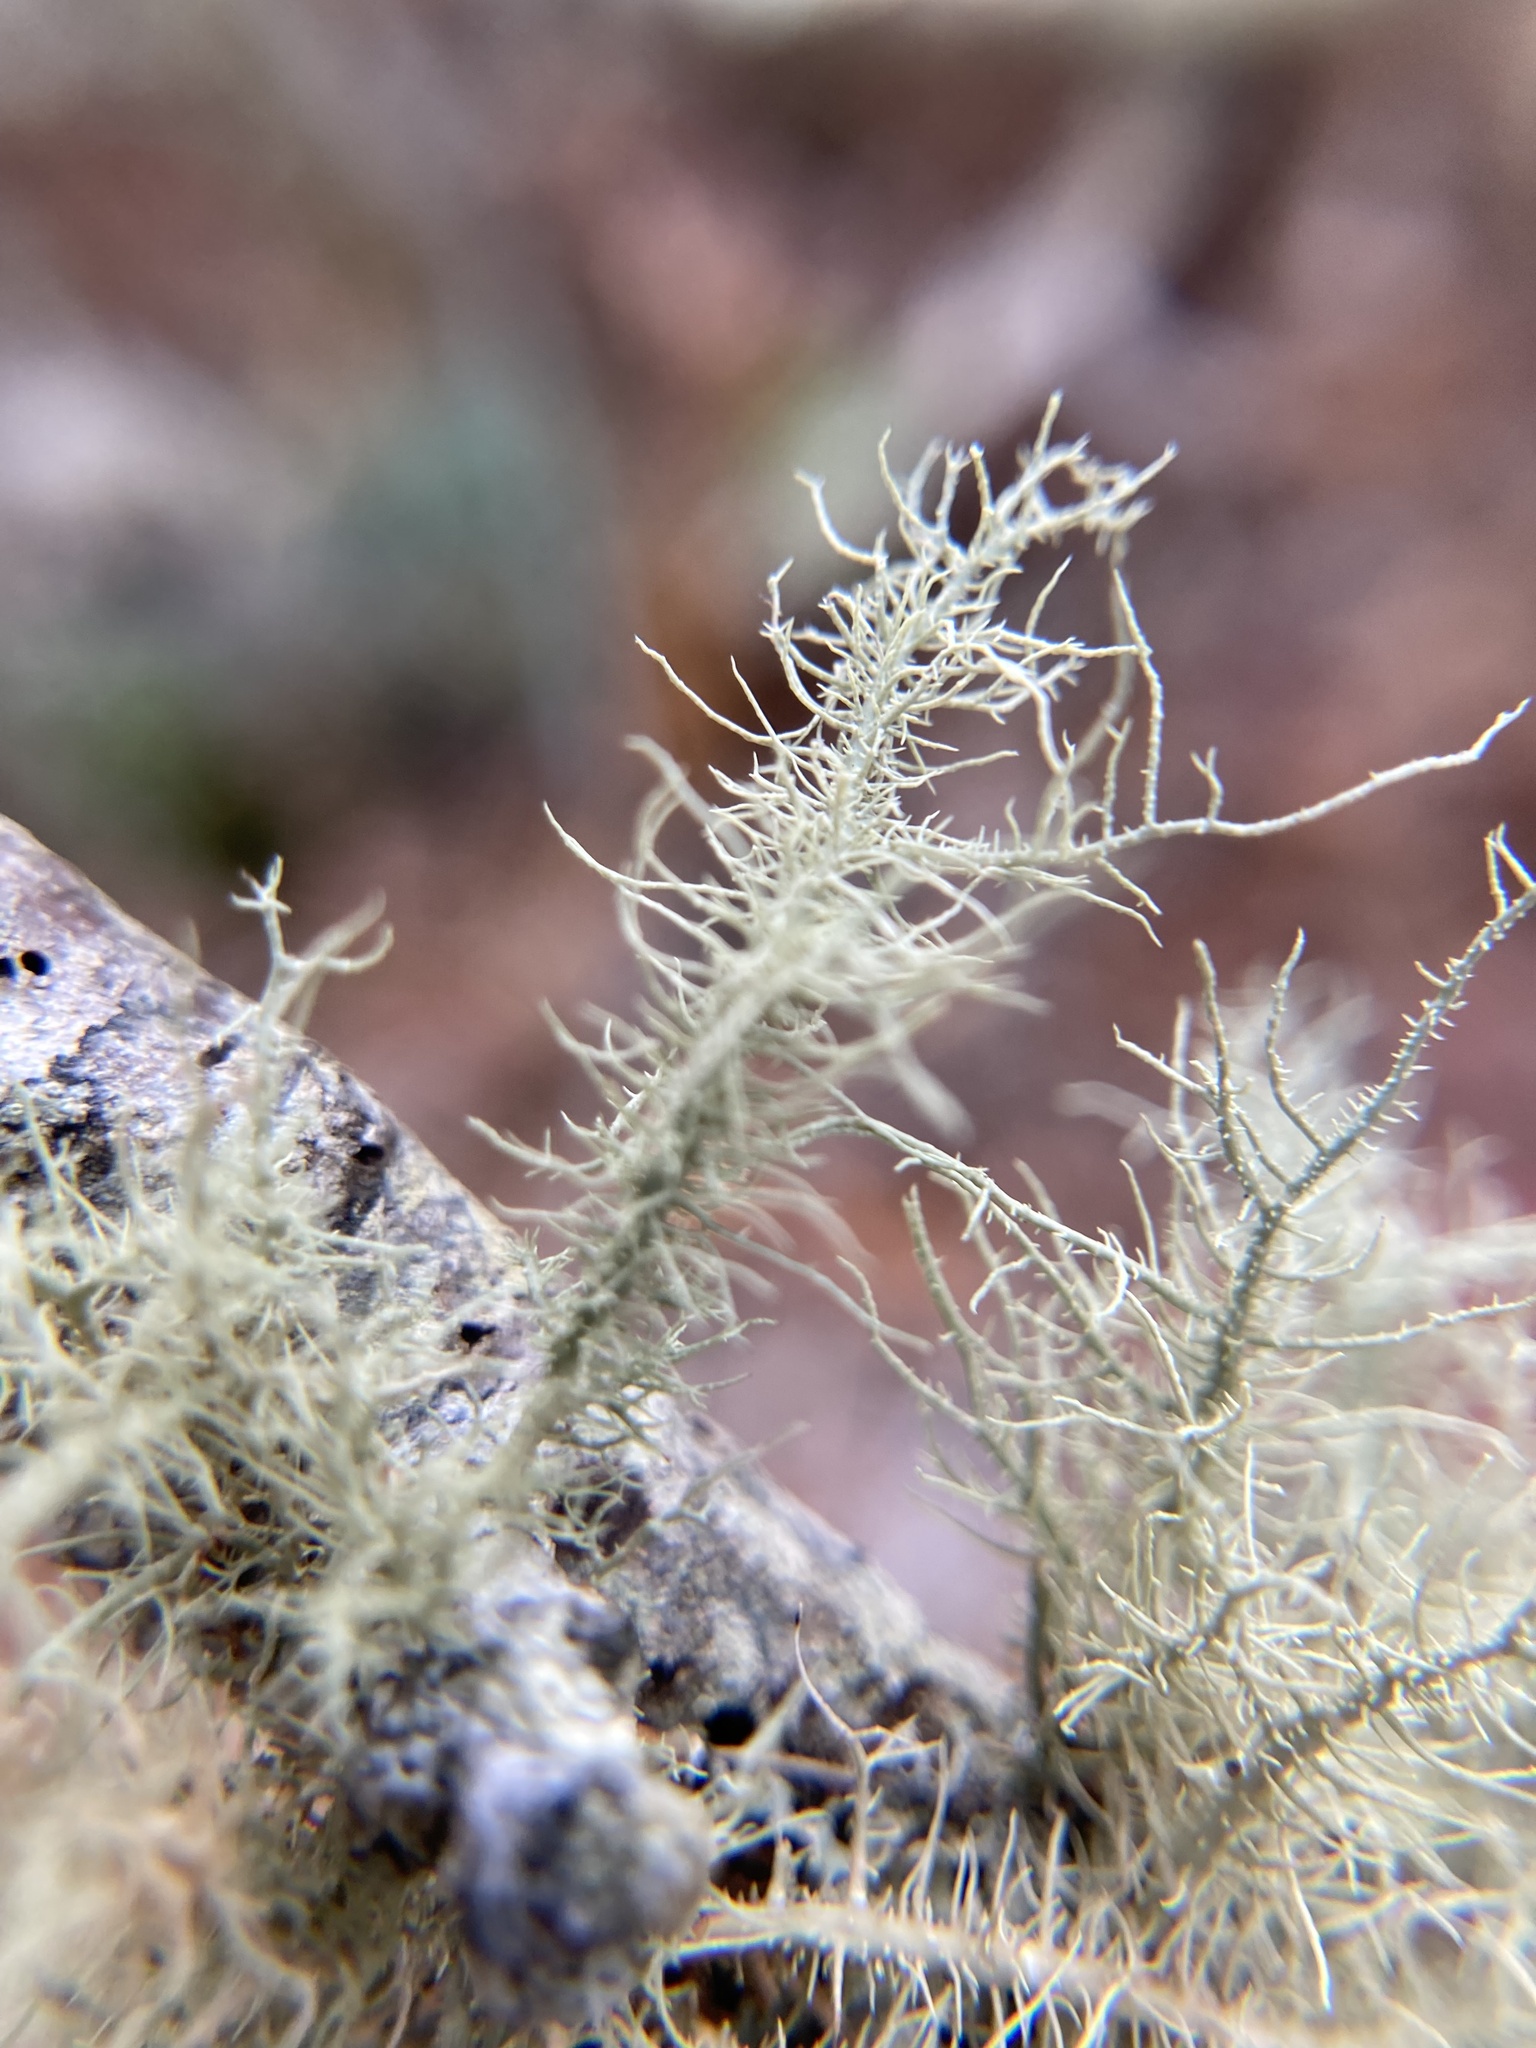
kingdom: Fungi
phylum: Ascomycota
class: Lecanoromycetes
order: Lecanorales
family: Parmeliaceae
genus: Usnea
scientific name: Usnea
